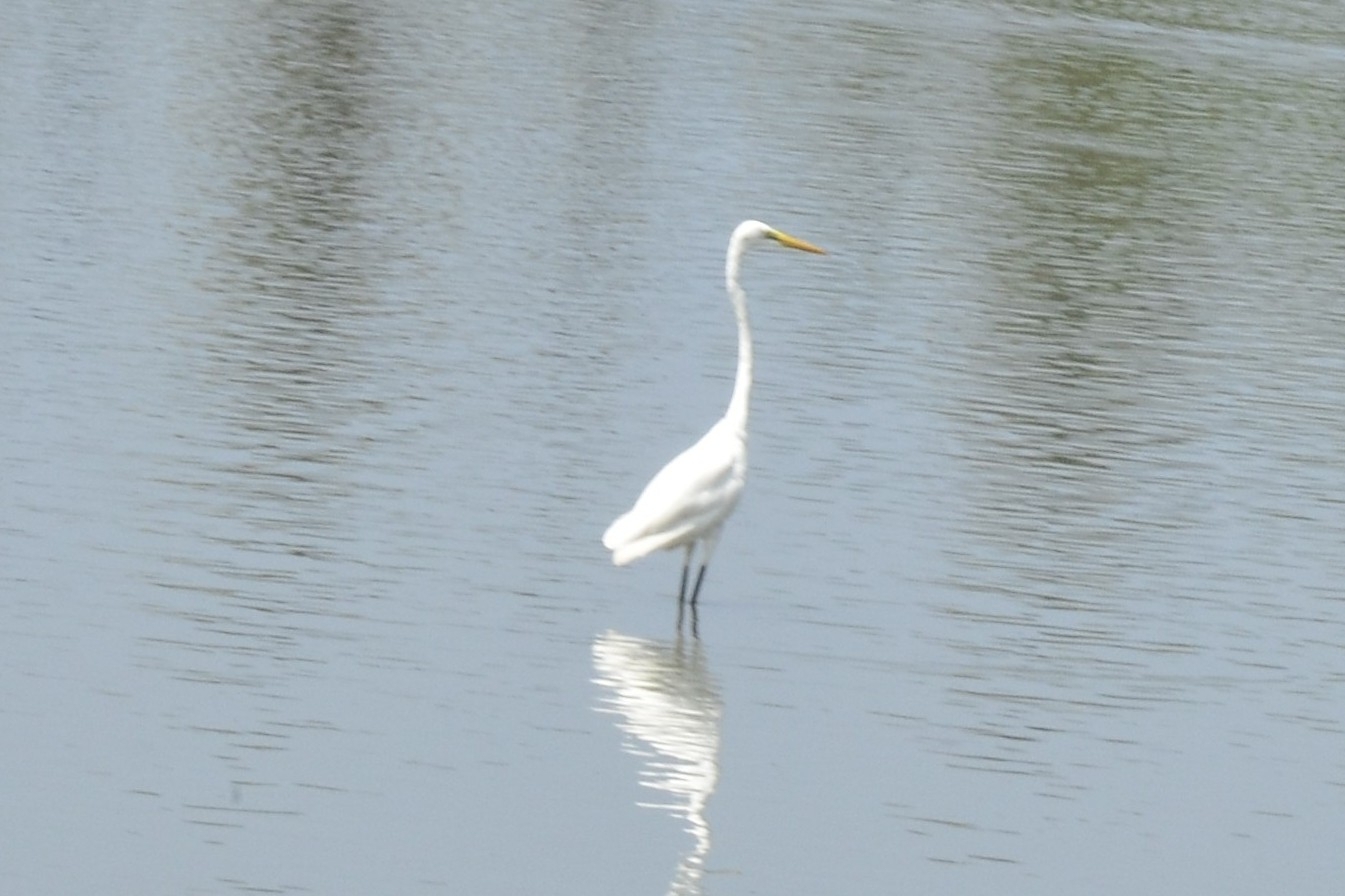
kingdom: Animalia
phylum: Chordata
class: Aves
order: Pelecaniformes
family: Ardeidae
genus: Ardea
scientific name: Ardea alba
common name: Great egret
